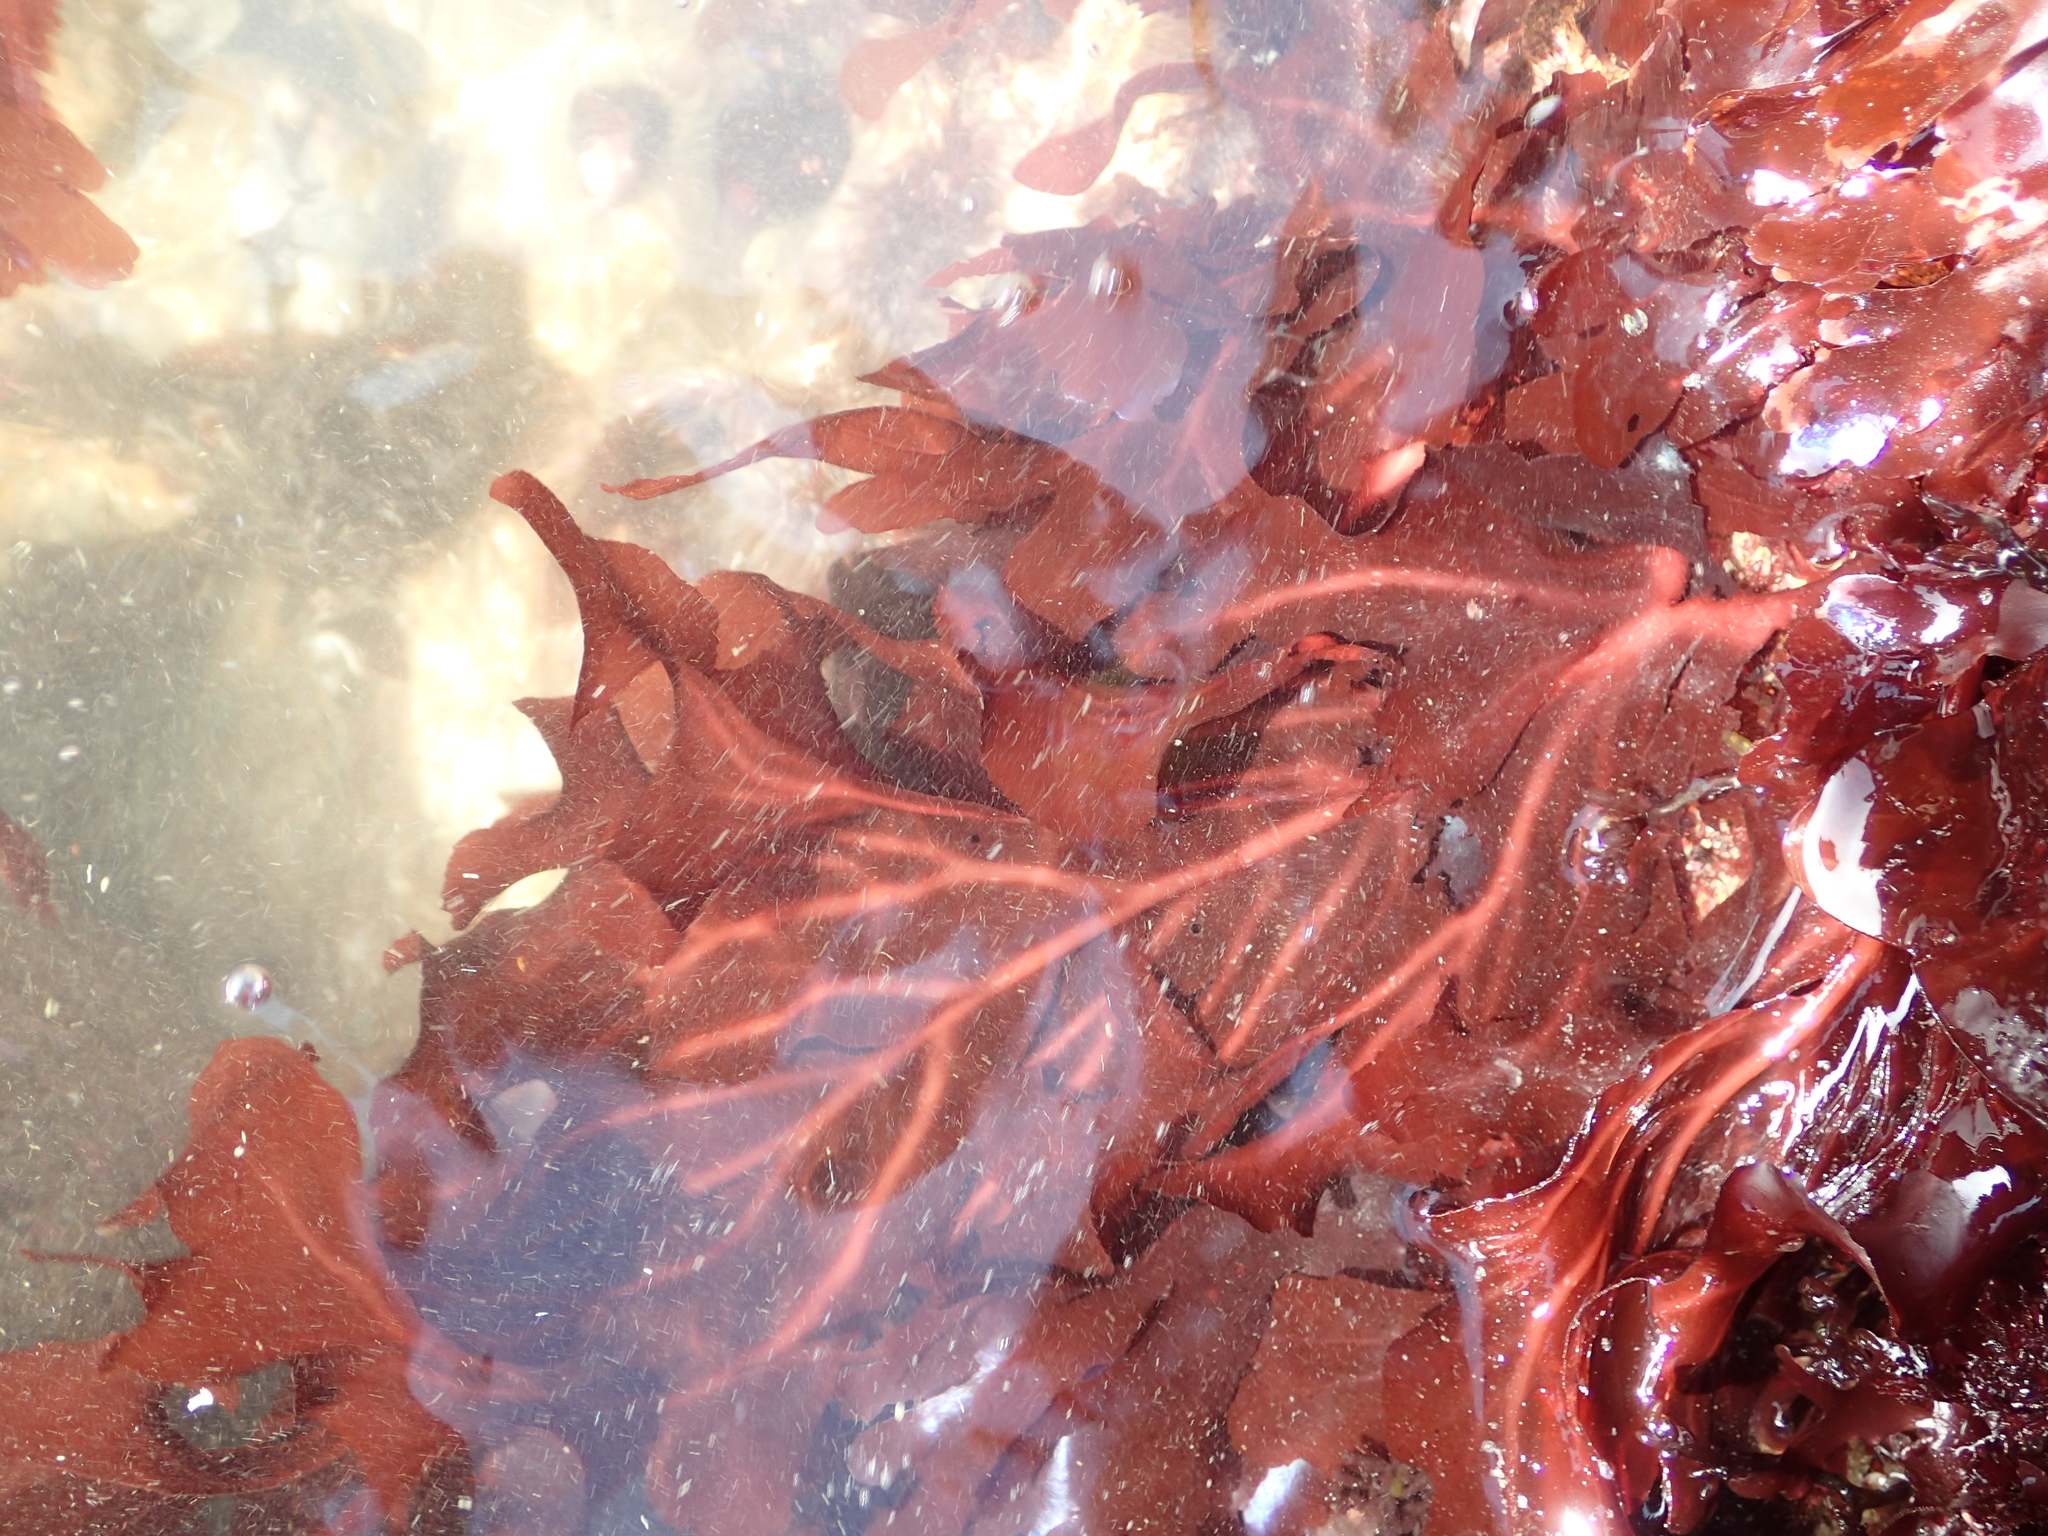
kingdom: Plantae
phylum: Rhodophyta
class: Florideophyceae
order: Gigartinales
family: Kallymeniaceae
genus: Erythrophyllum
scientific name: Erythrophyllum delesserioides
